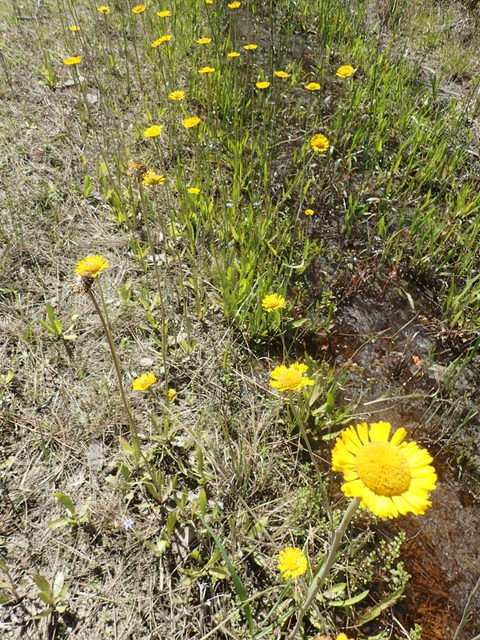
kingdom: Plantae
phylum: Tracheophyta
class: Magnoliopsida
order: Asterales
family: Asteraceae
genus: Helenium
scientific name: Helenium pinnatifidum
